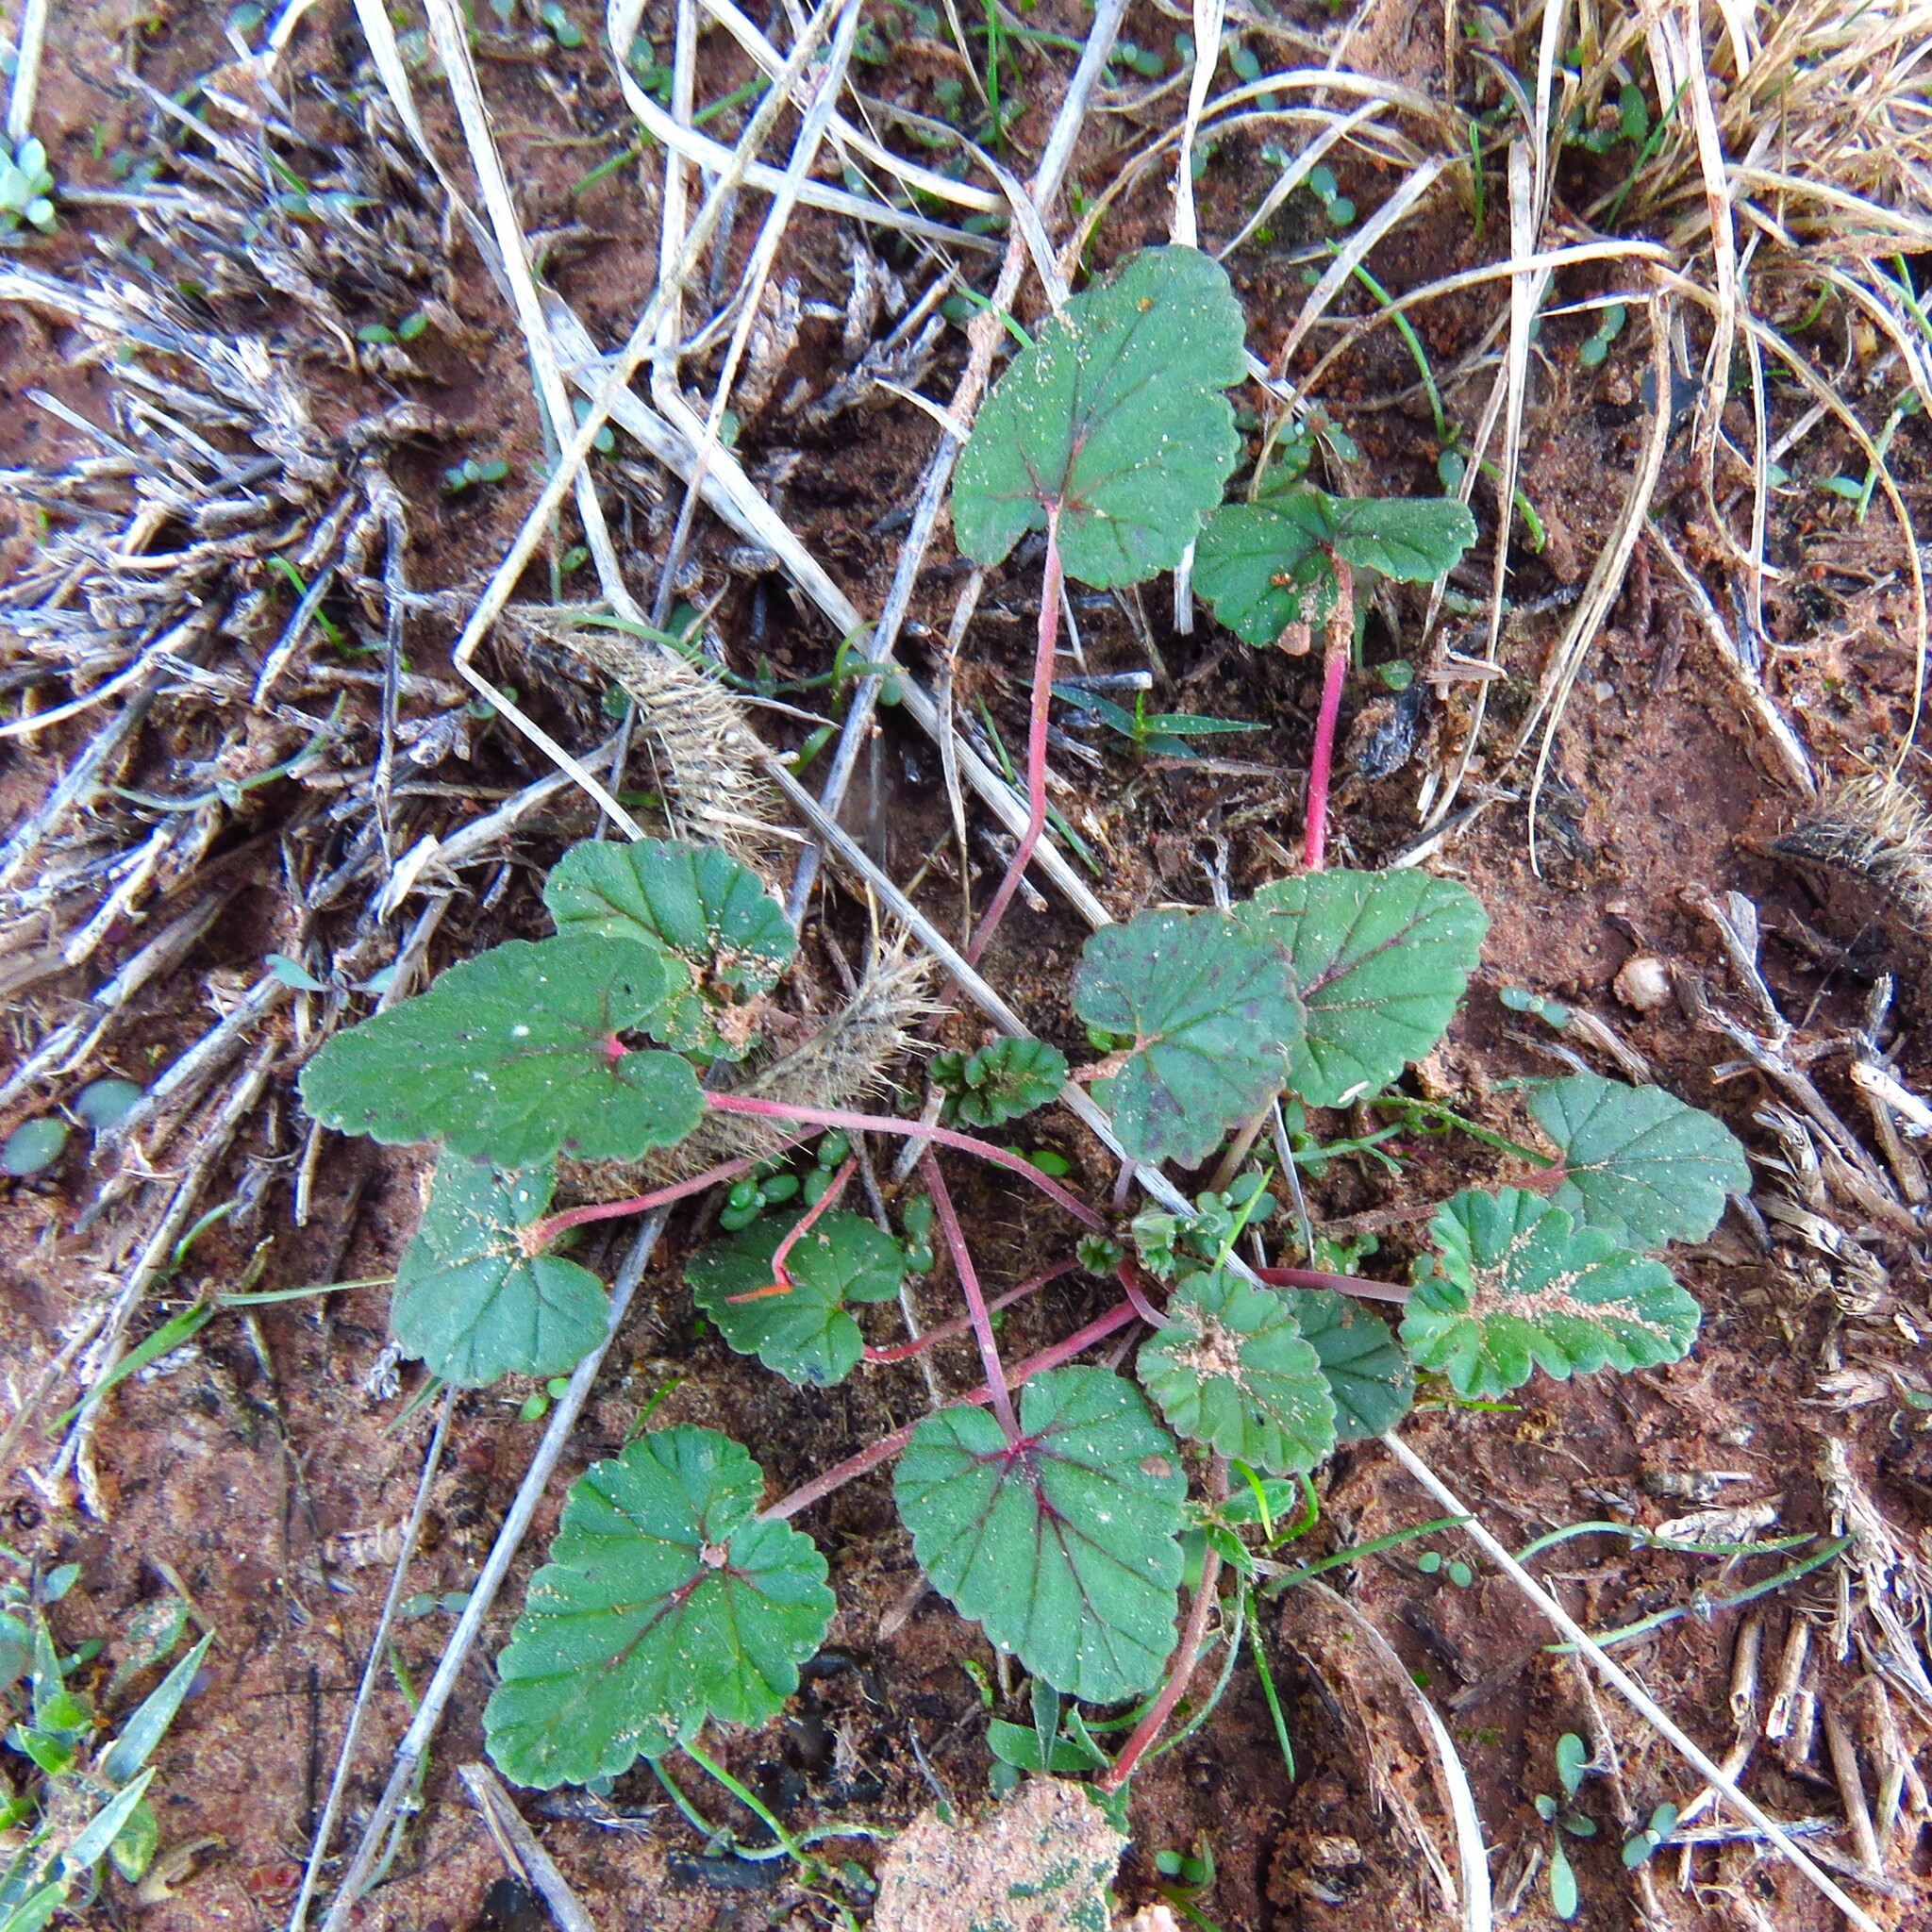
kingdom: Plantae
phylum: Tracheophyta
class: Magnoliopsida
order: Geraniales
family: Geraniaceae
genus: Erodium
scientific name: Erodium texanum
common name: Texas stork's-bill
